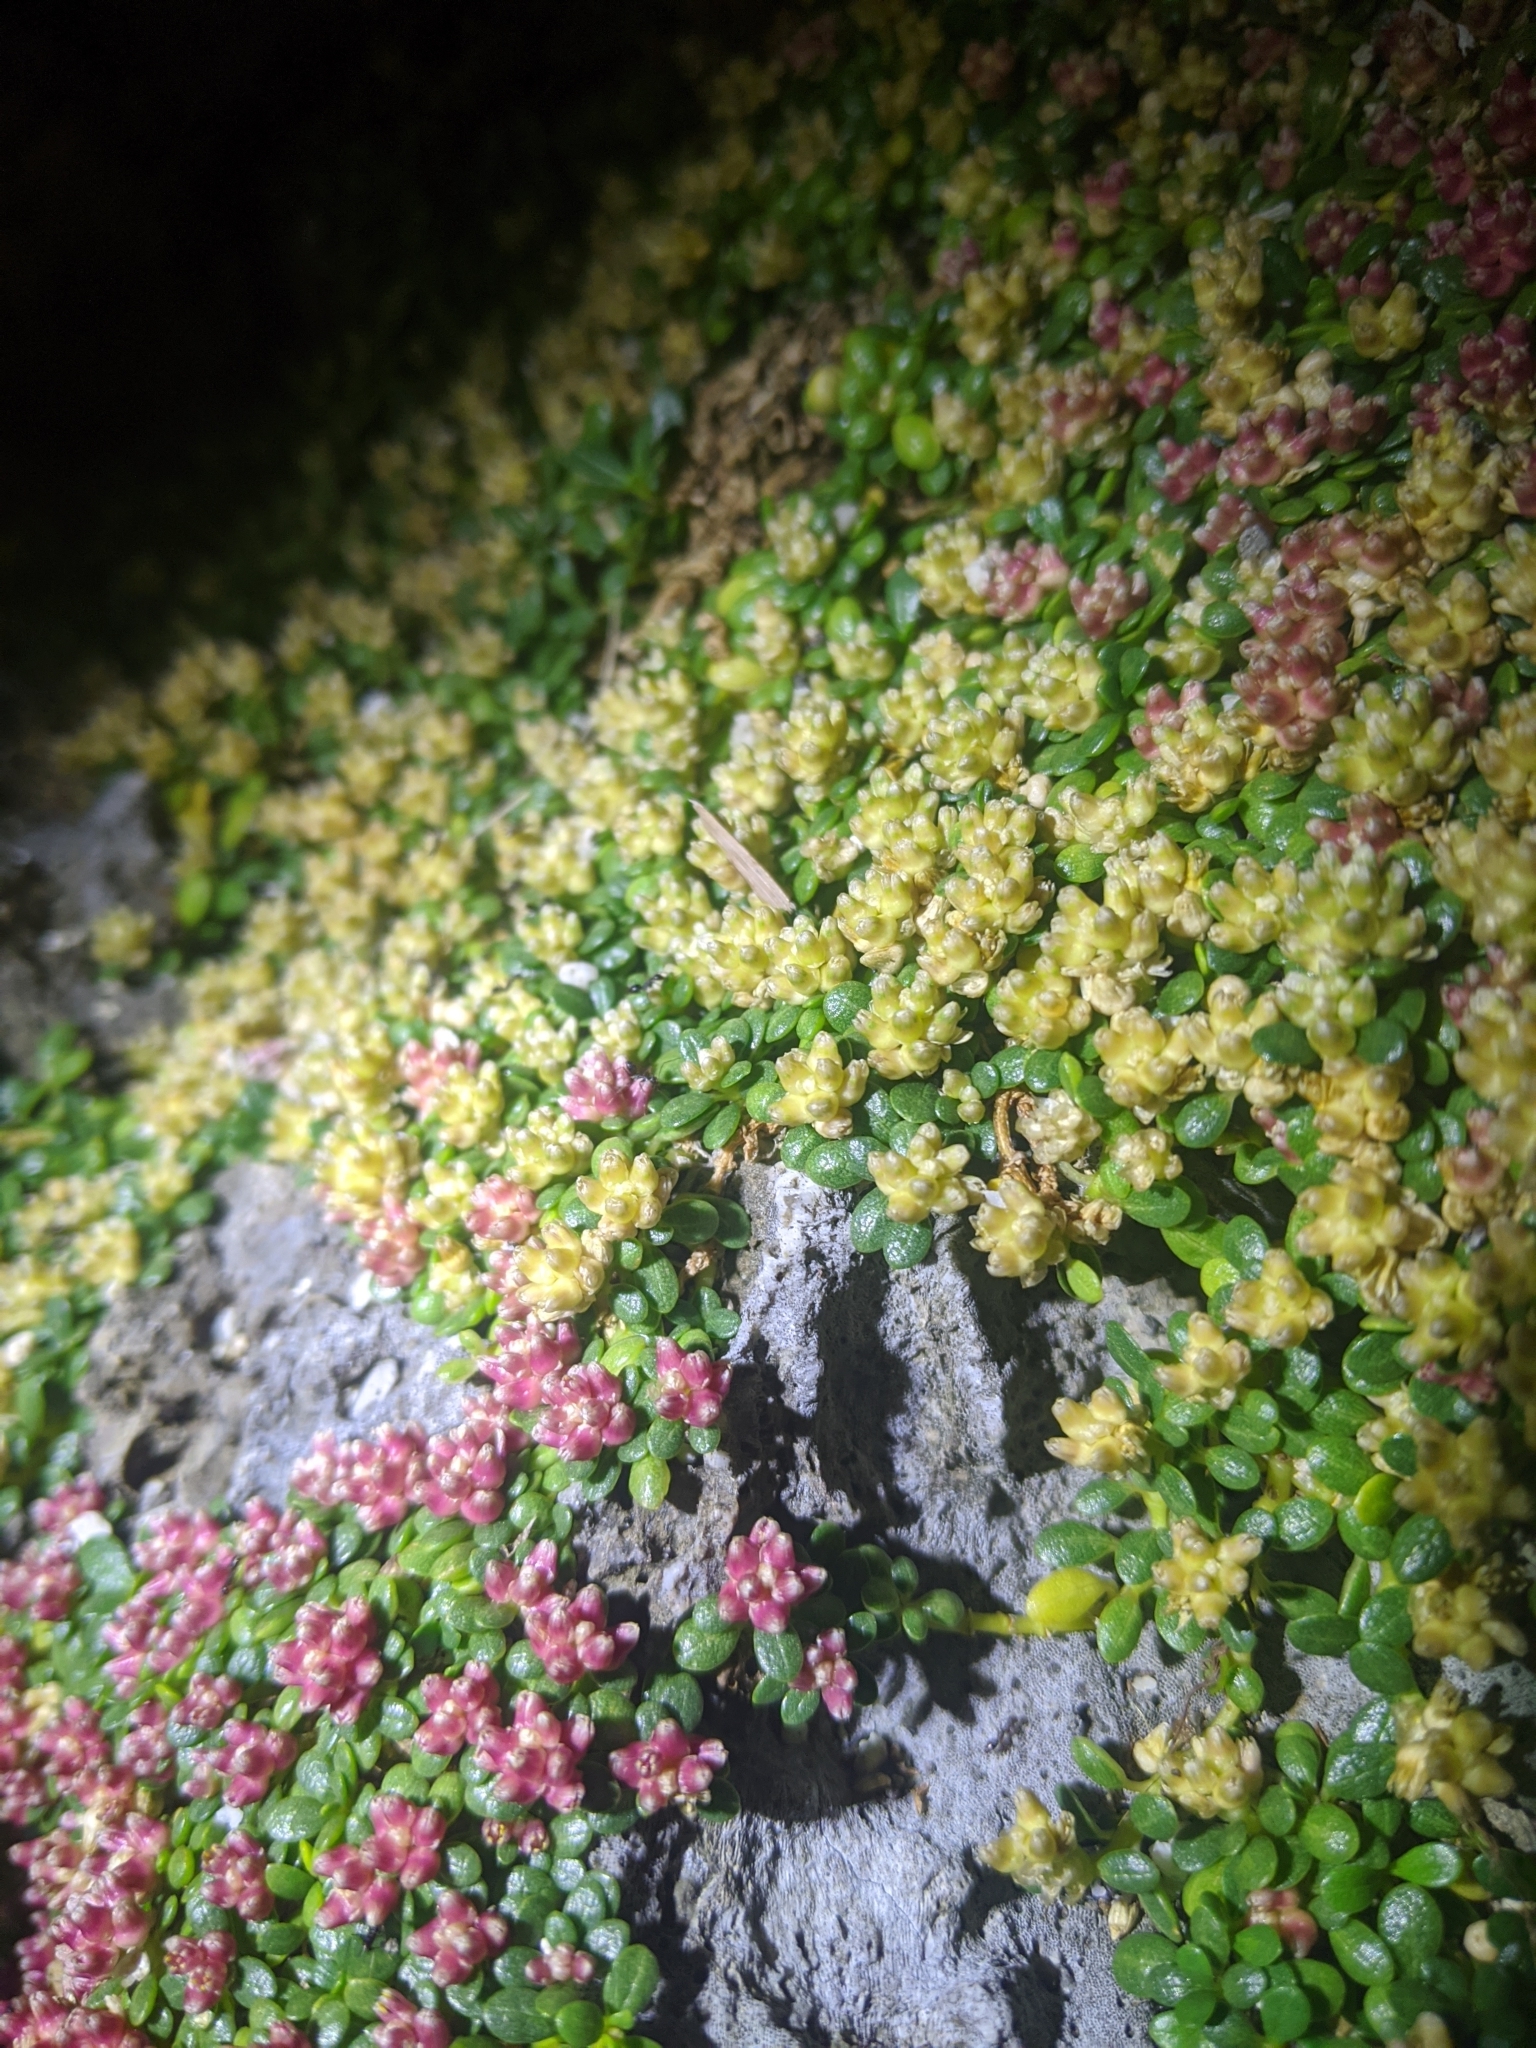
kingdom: Plantae
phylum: Tracheophyta
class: Magnoliopsida
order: Caryophyllales
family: Amaranthaceae
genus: Gomphrena
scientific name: Gomphrena wrightii
